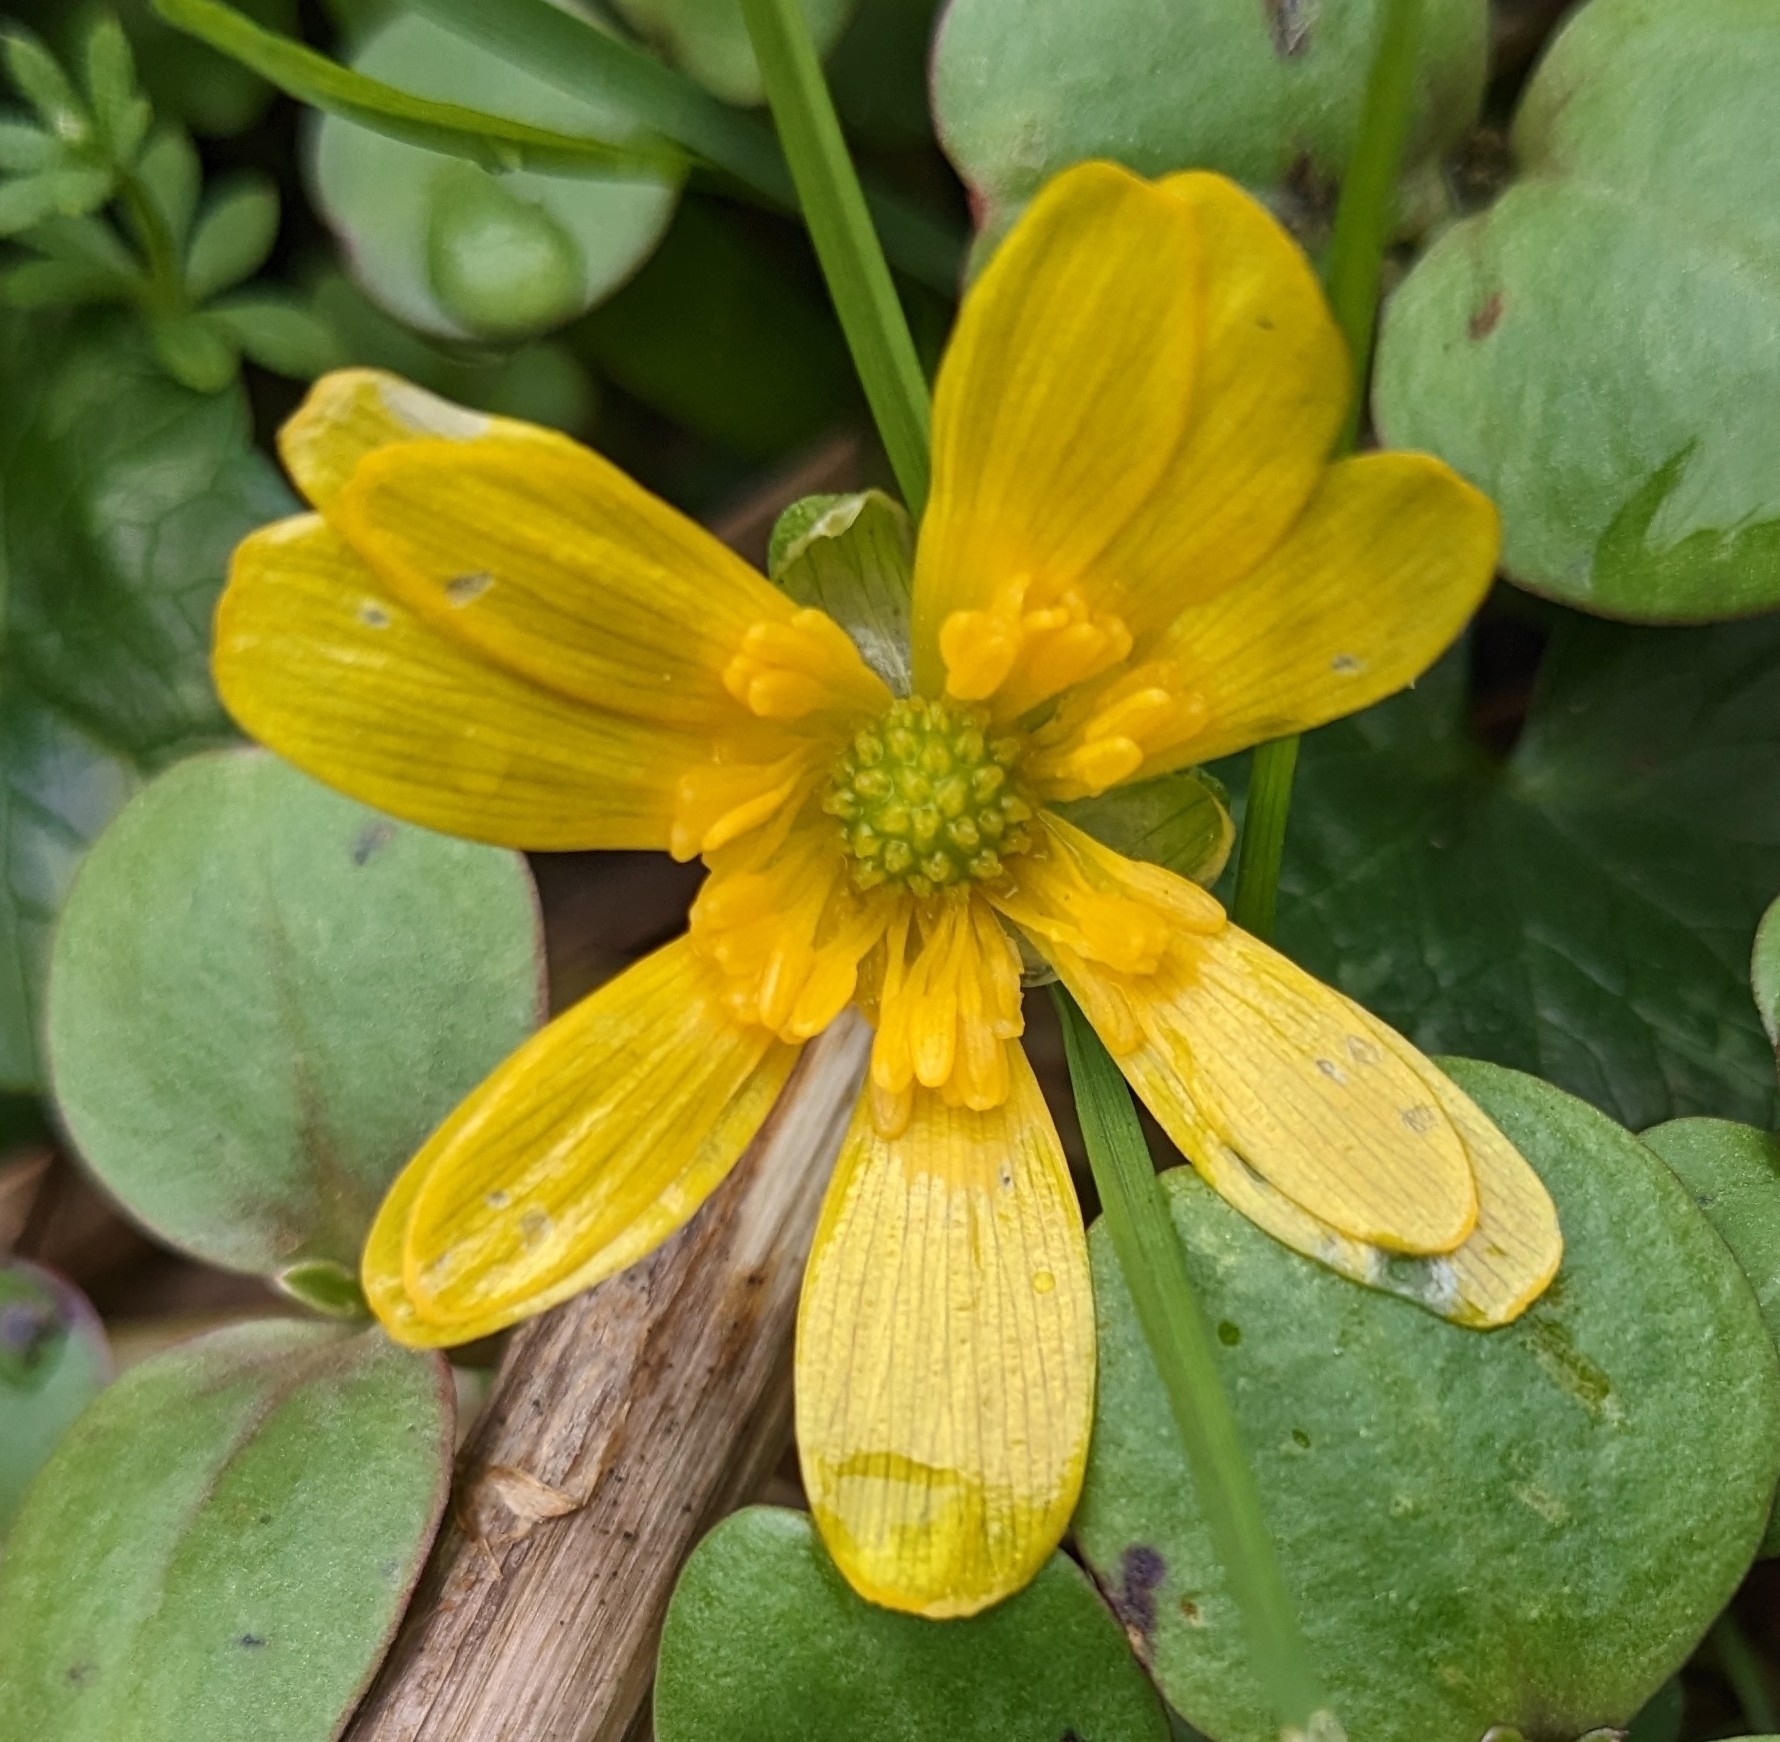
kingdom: Plantae
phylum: Tracheophyta
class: Magnoliopsida
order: Ranunculales
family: Ranunculaceae
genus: Ficaria
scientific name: Ficaria verna
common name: Lesser celandine
